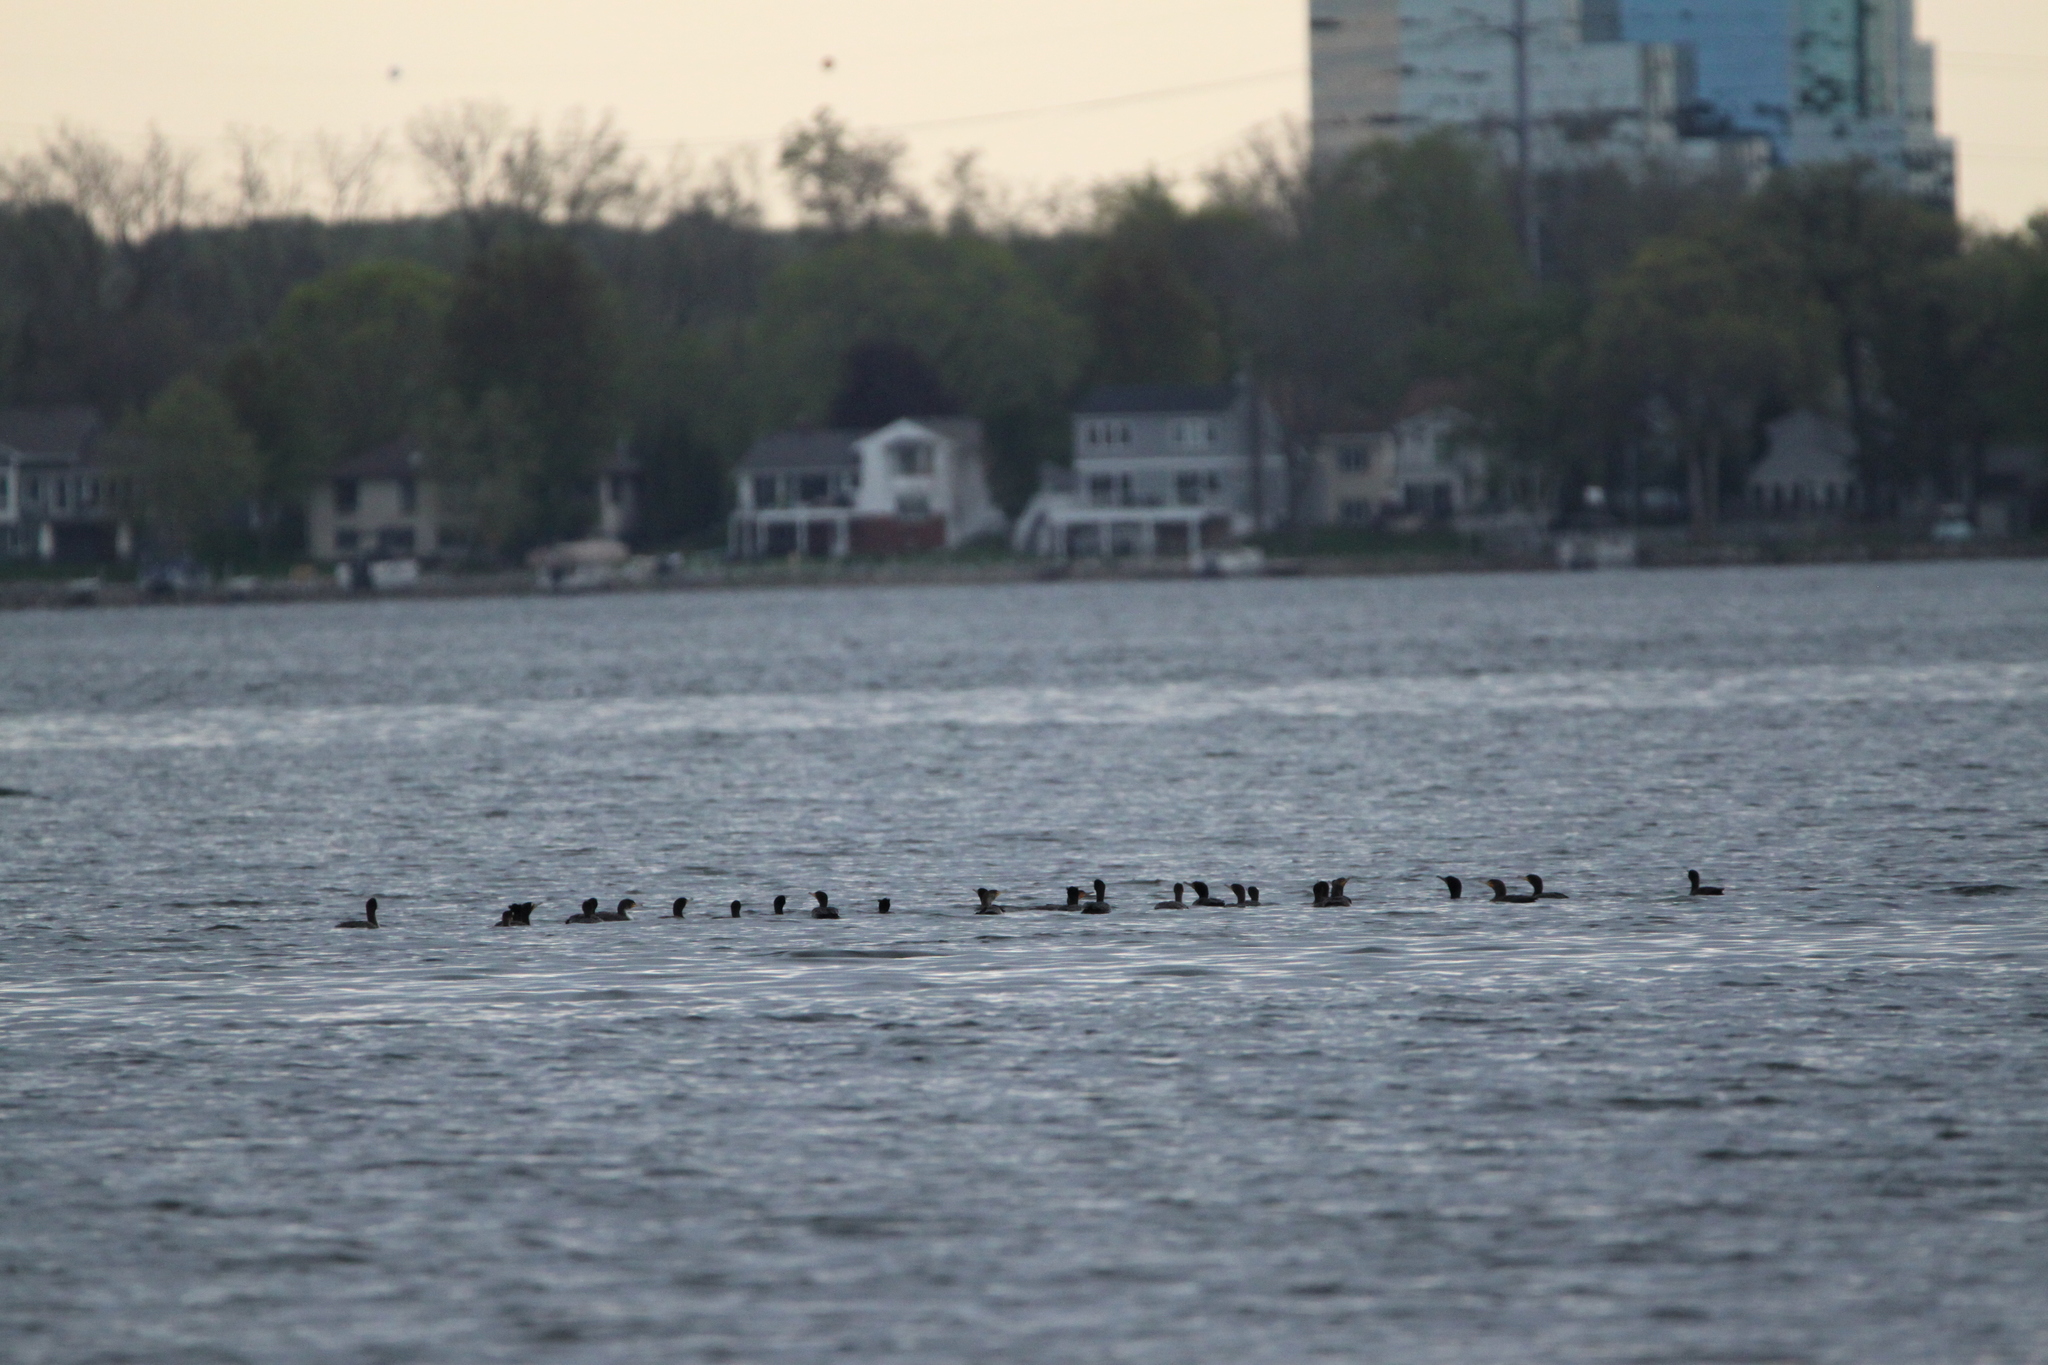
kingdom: Animalia
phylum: Chordata
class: Aves
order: Suliformes
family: Phalacrocoracidae
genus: Phalacrocorax
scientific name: Phalacrocorax auritus
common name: Double-crested cormorant
